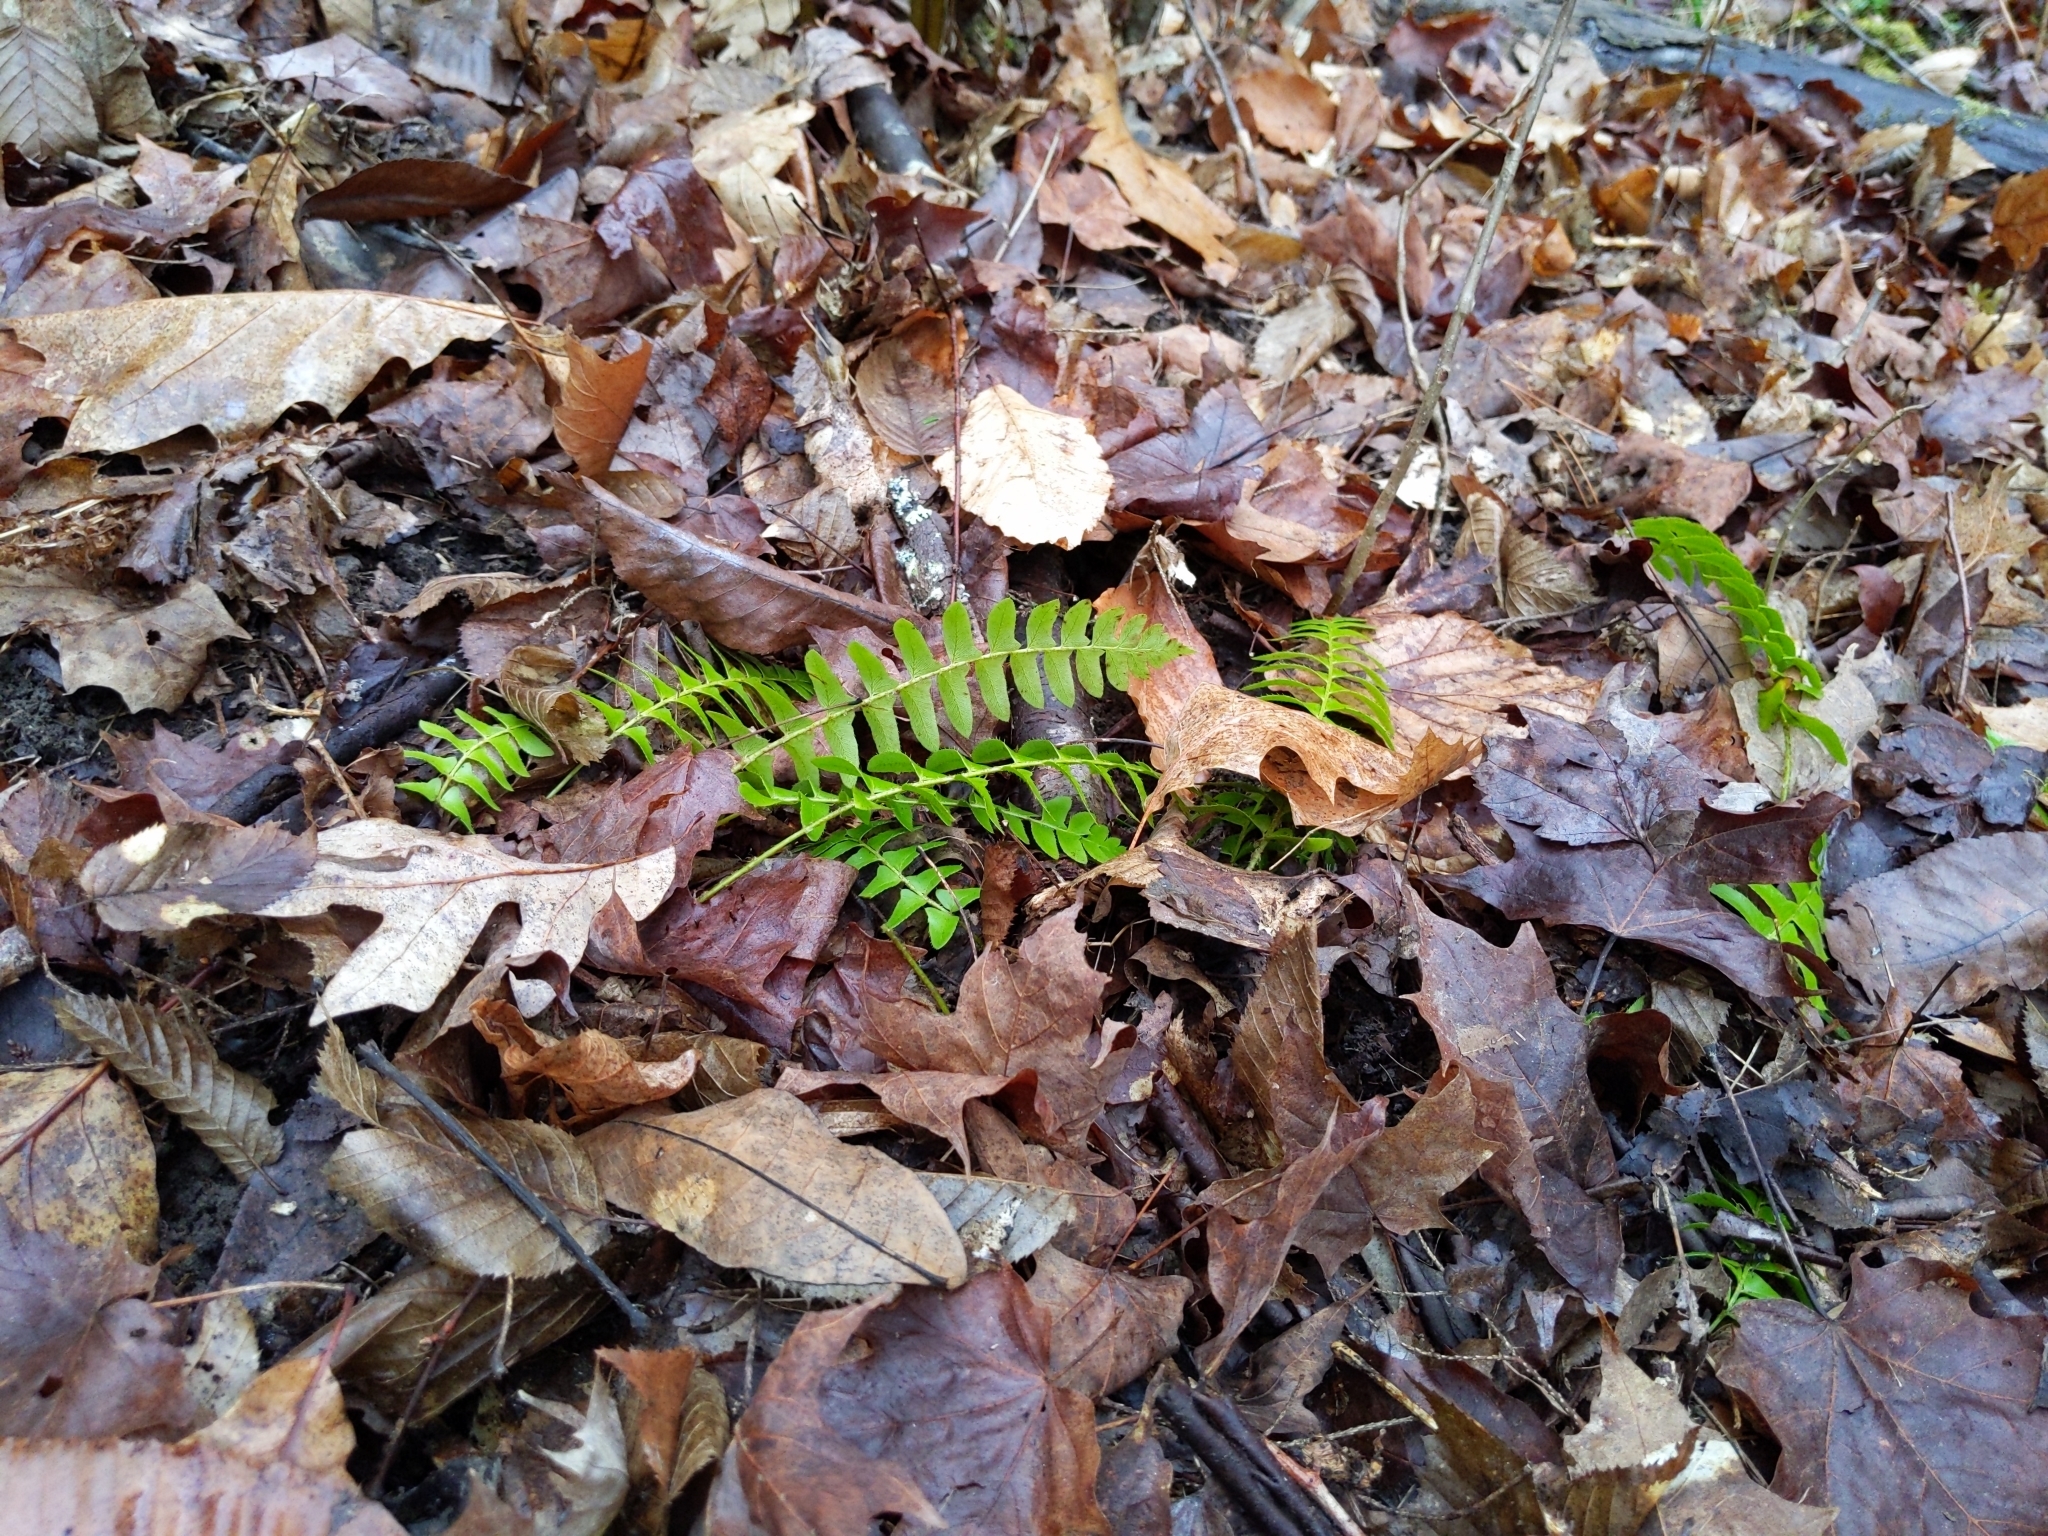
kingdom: Plantae
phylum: Tracheophyta
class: Polypodiopsida
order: Polypodiales
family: Dryopteridaceae
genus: Polystichum
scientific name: Polystichum acrostichoides
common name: Christmas fern
